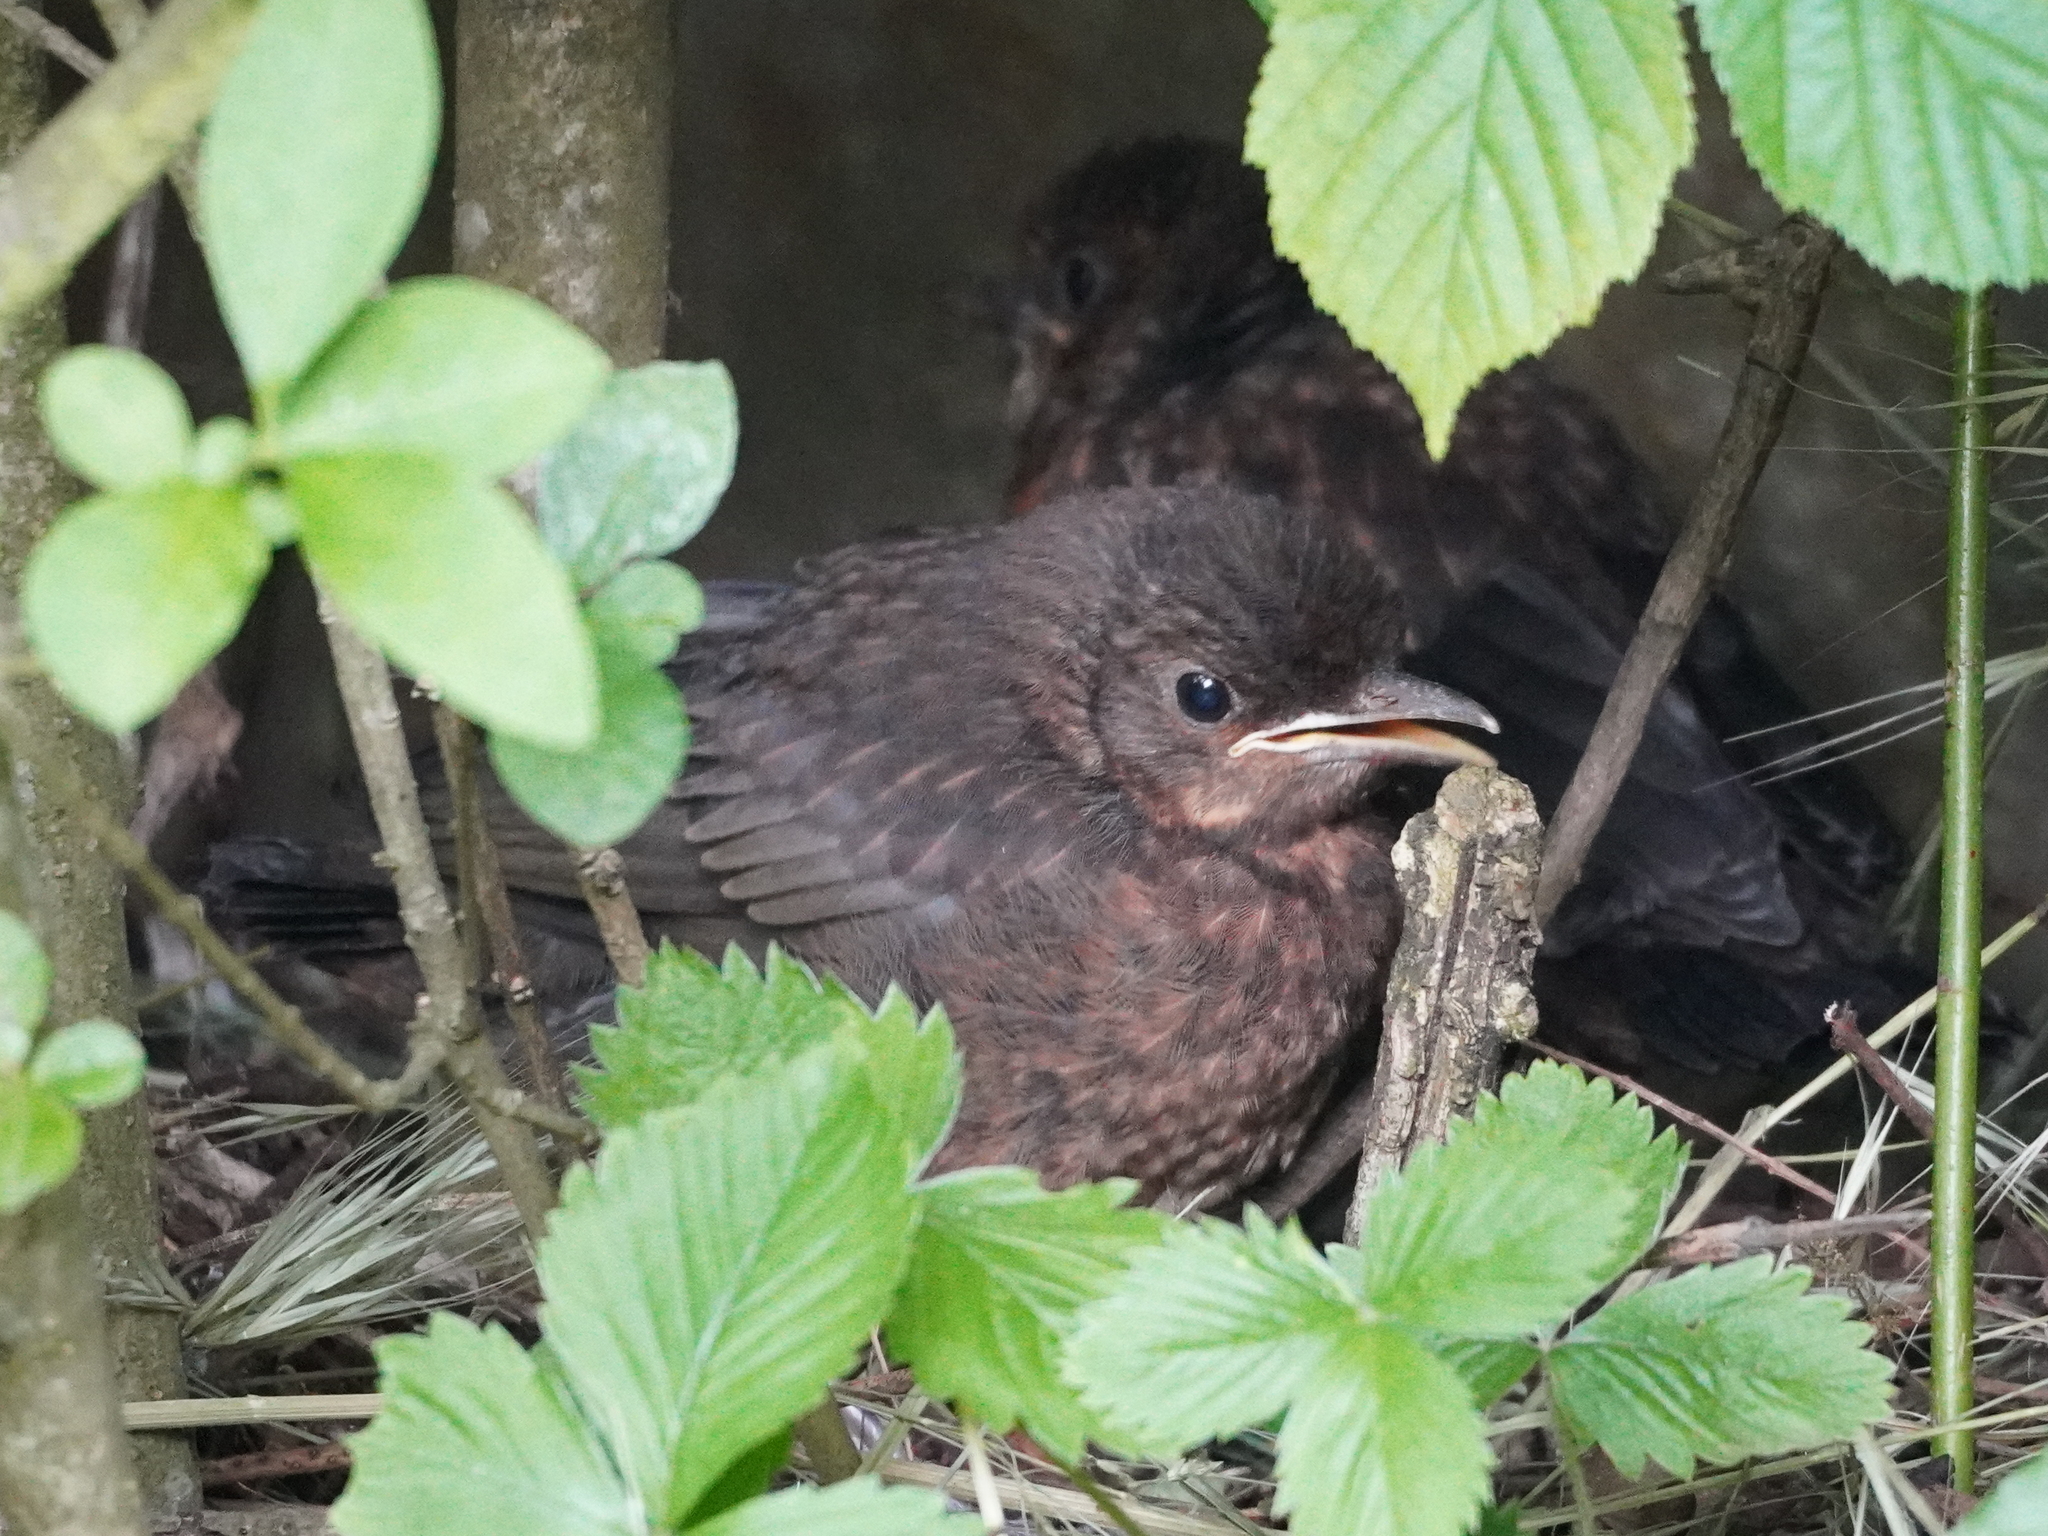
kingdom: Animalia
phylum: Chordata
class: Aves
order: Passeriformes
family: Turdidae
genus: Turdus
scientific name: Turdus merula
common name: Common blackbird
